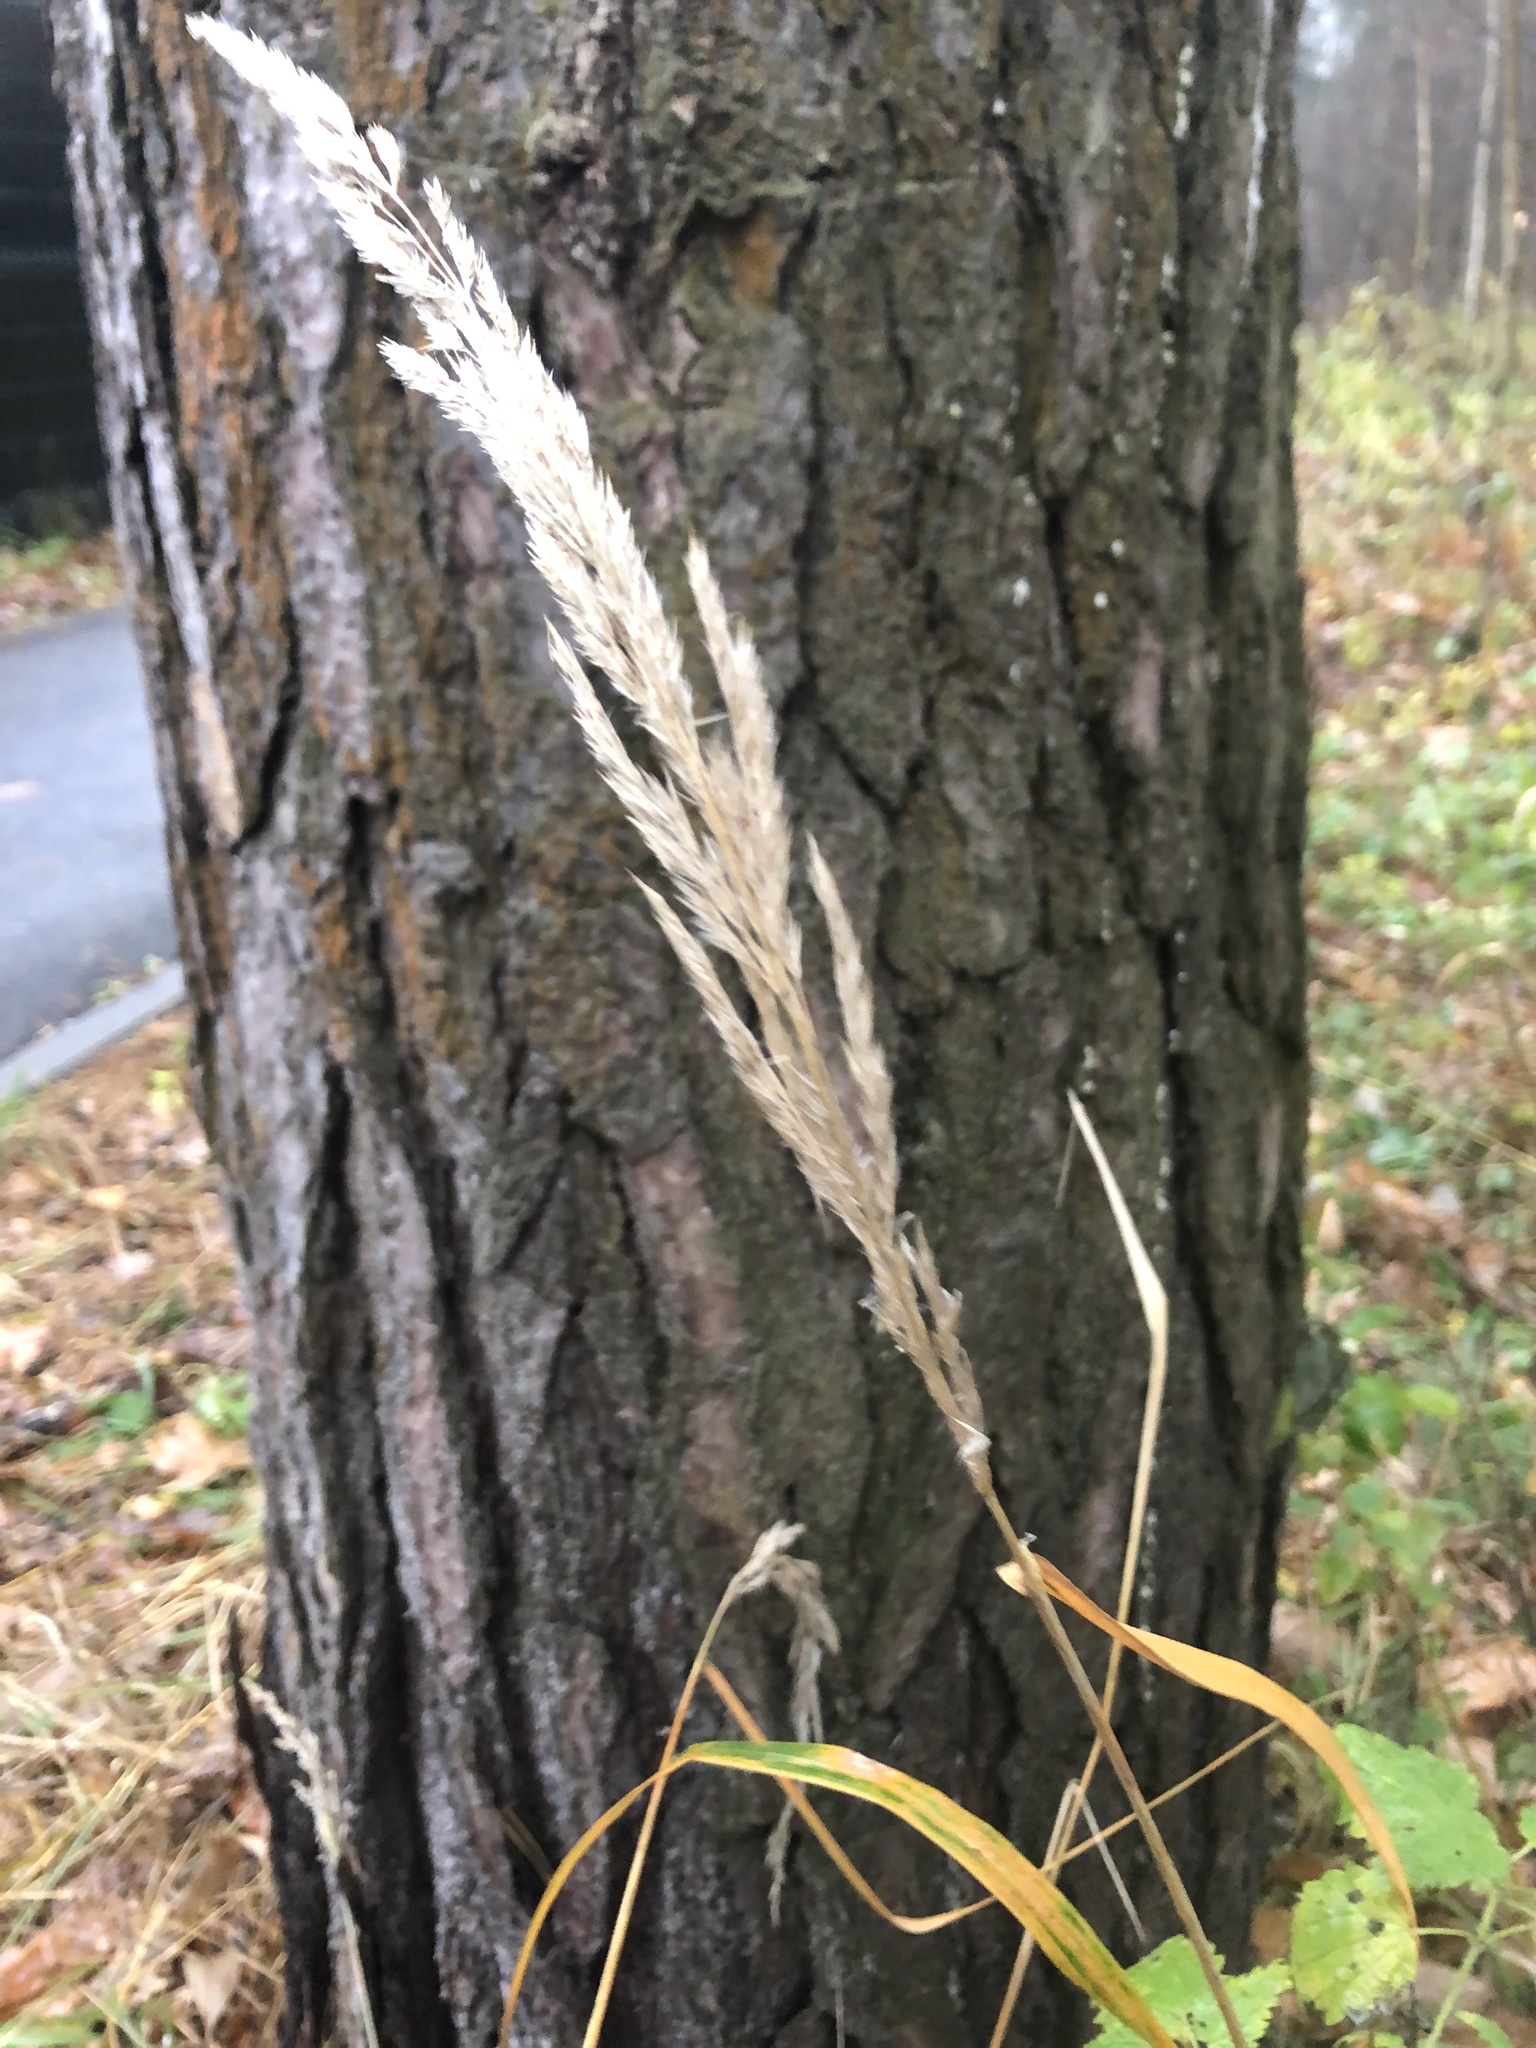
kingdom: Plantae
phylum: Tracheophyta
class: Liliopsida
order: Poales
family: Poaceae
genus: Calamagrostis
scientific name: Calamagrostis epigejos
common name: Wood small-reed
